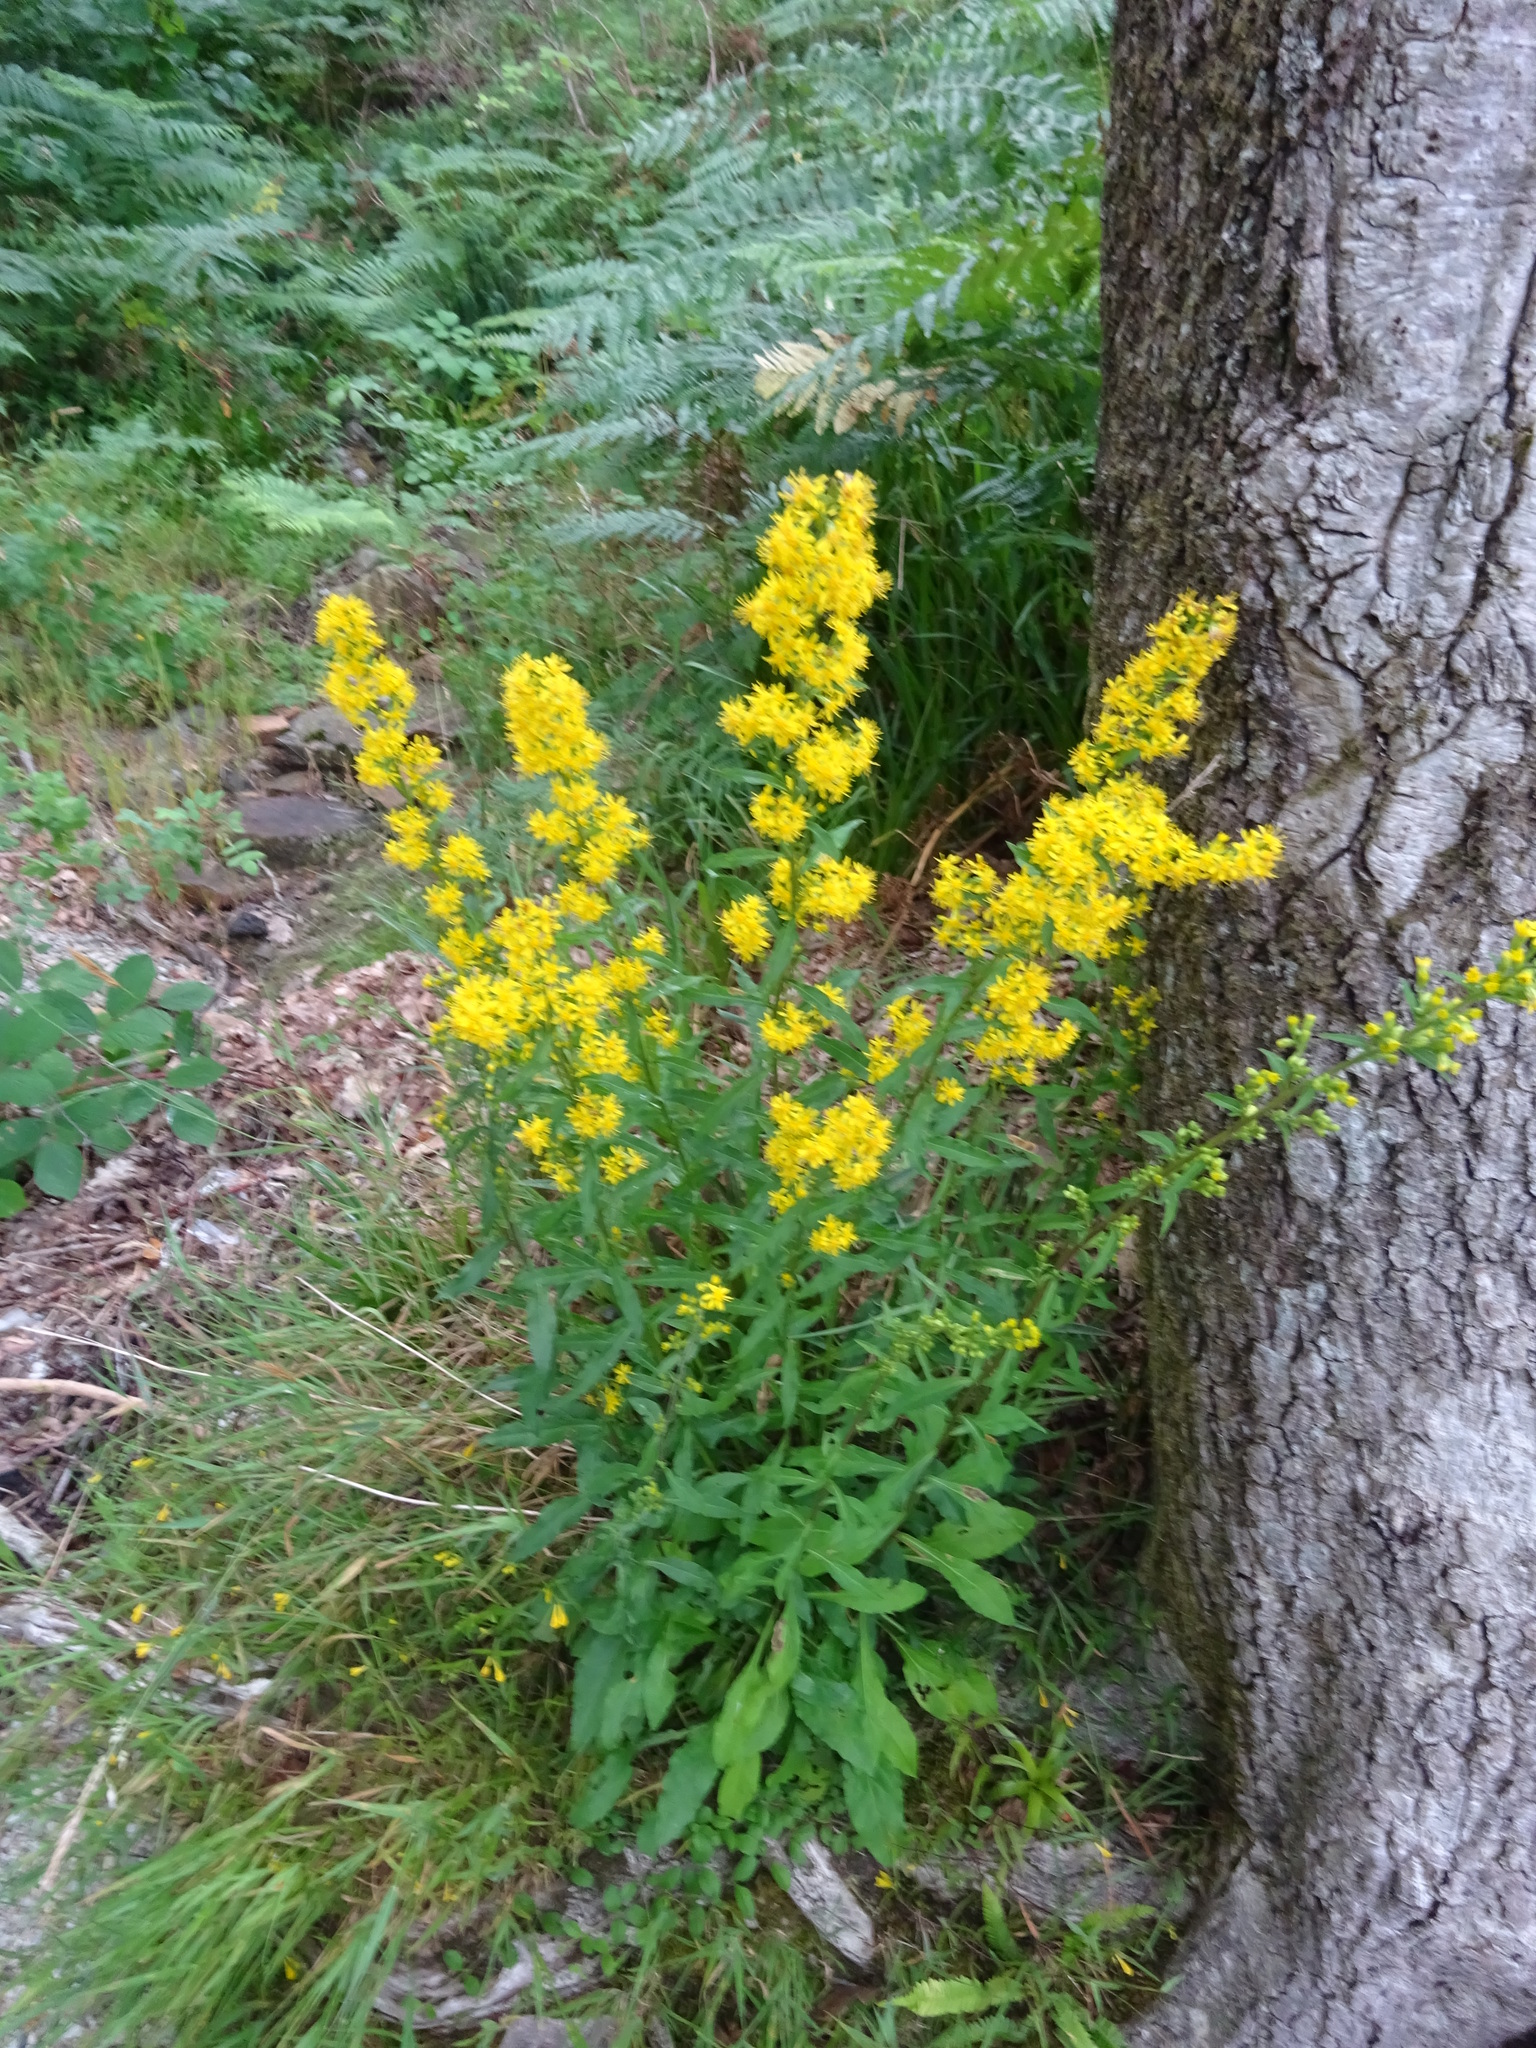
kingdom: Plantae
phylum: Tracheophyta
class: Magnoliopsida
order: Asterales
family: Asteraceae
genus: Solidago
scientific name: Solidago virgaurea
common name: Goldenrod
